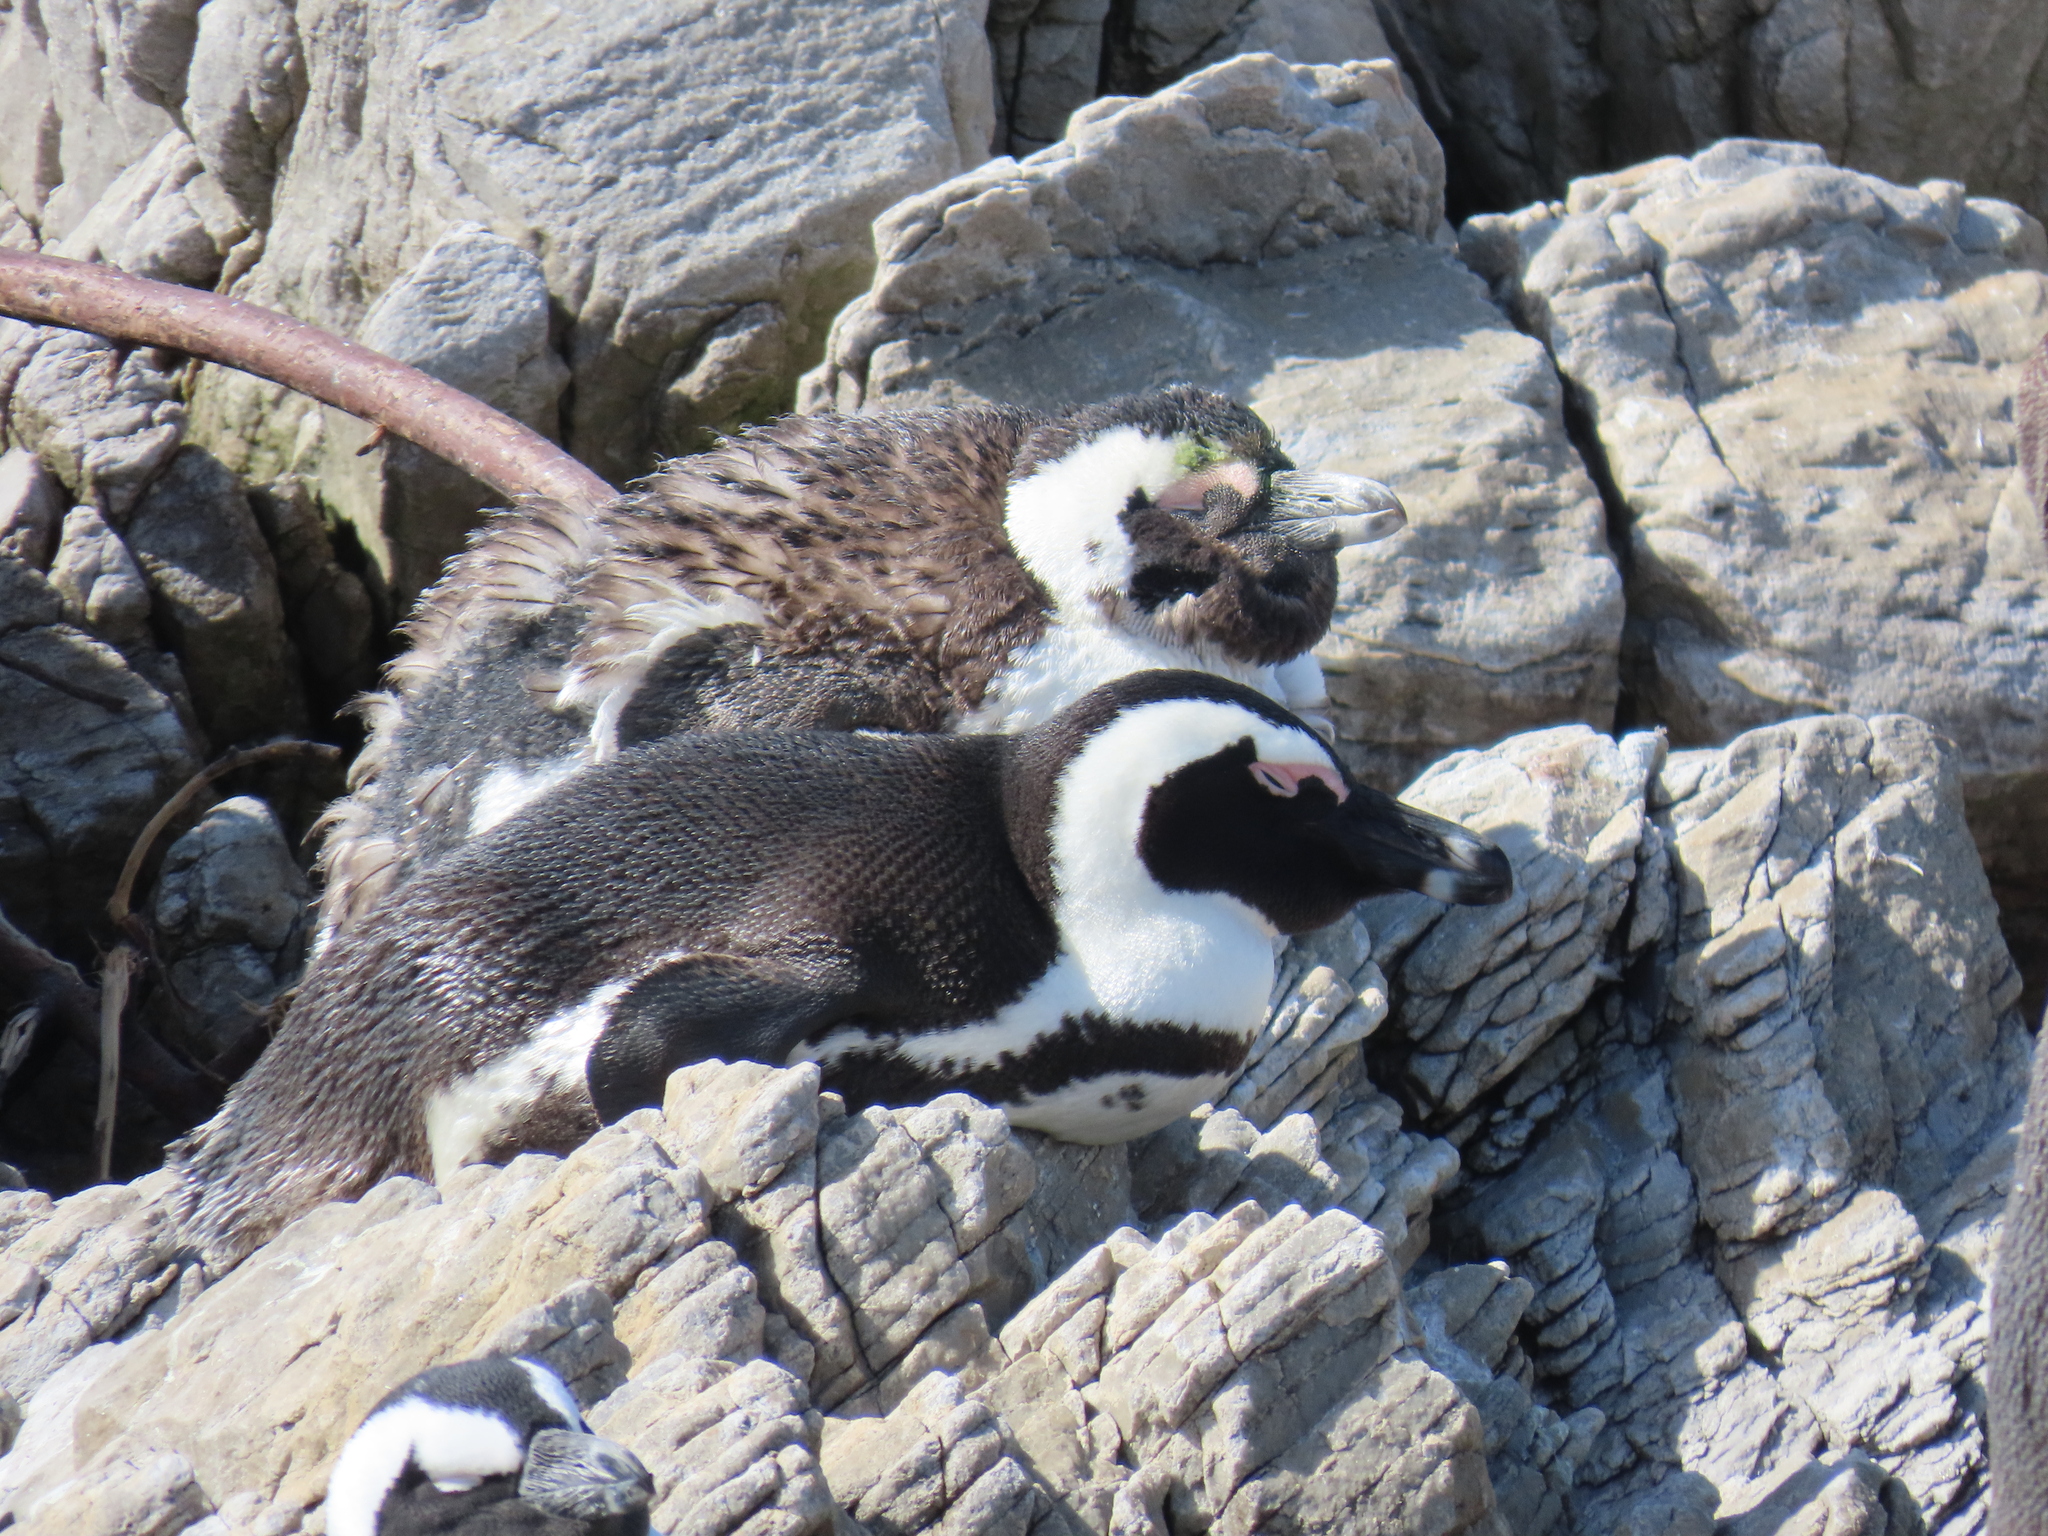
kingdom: Animalia
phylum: Chordata
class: Aves
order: Sphenisciformes
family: Spheniscidae
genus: Spheniscus
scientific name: Spheniscus demersus
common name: African penguin
